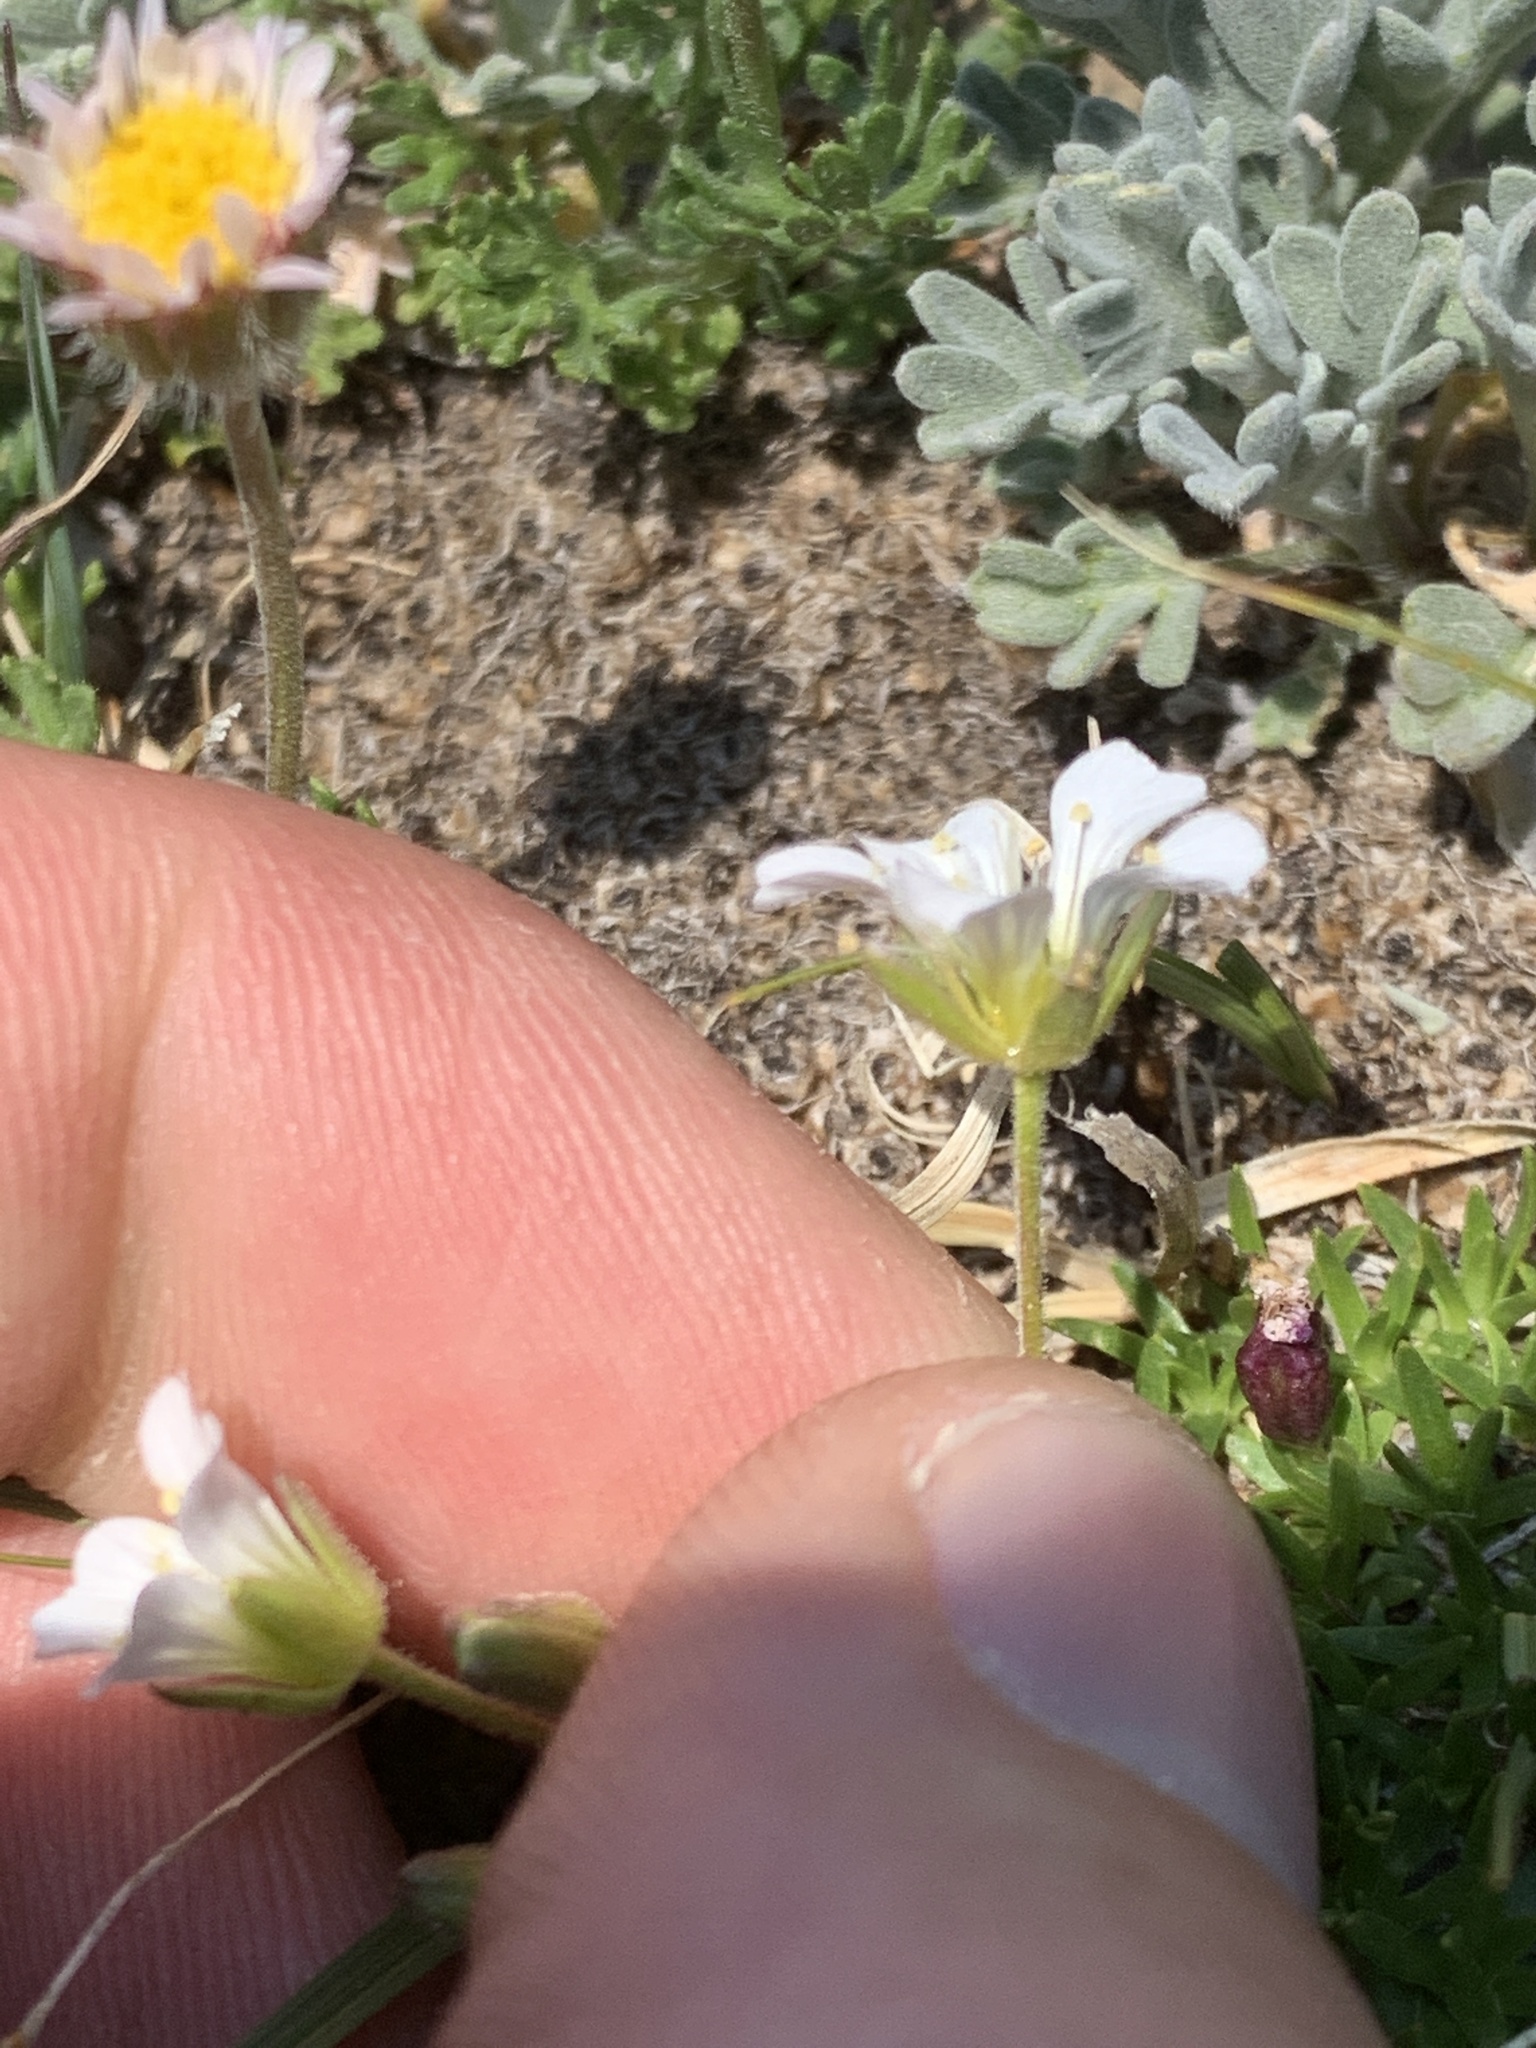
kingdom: Plantae
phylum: Tracheophyta
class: Magnoliopsida
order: Caryophyllales
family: Caryophyllaceae
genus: Cherleria
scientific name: Cherleria obtusiloba
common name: Alpine stitchwort
